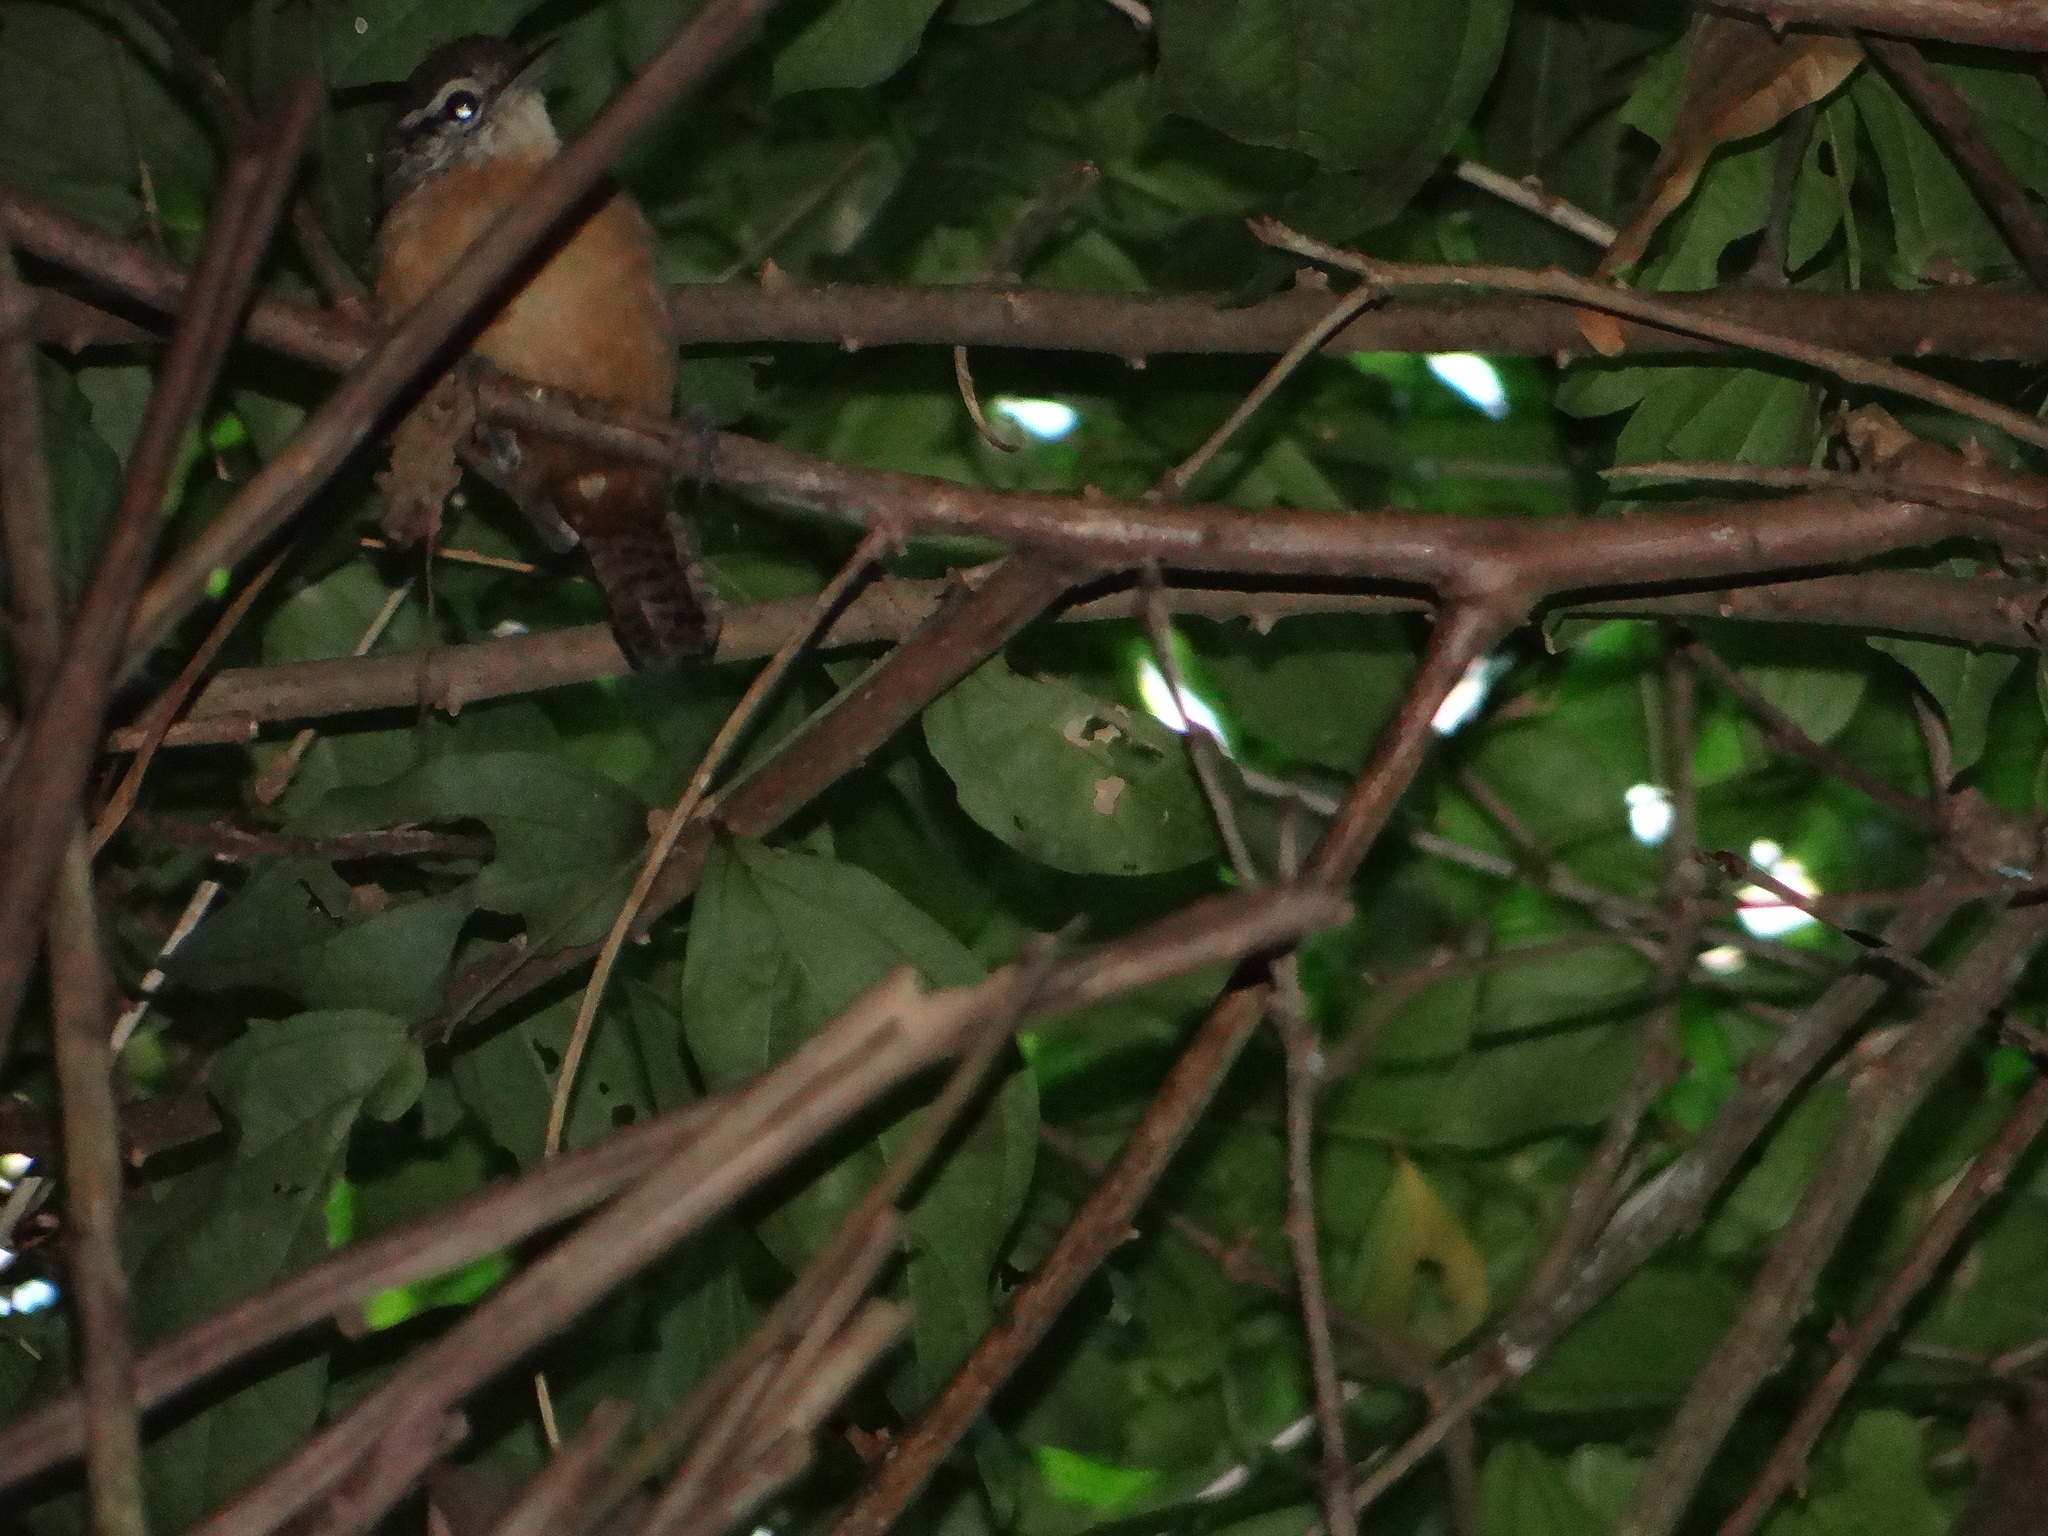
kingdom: Animalia
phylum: Chordata
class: Aves
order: Passeriformes
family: Troglodytidae
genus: Cantorchilus
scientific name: Cantorchilus leucotis
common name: Buff-breasted wren
